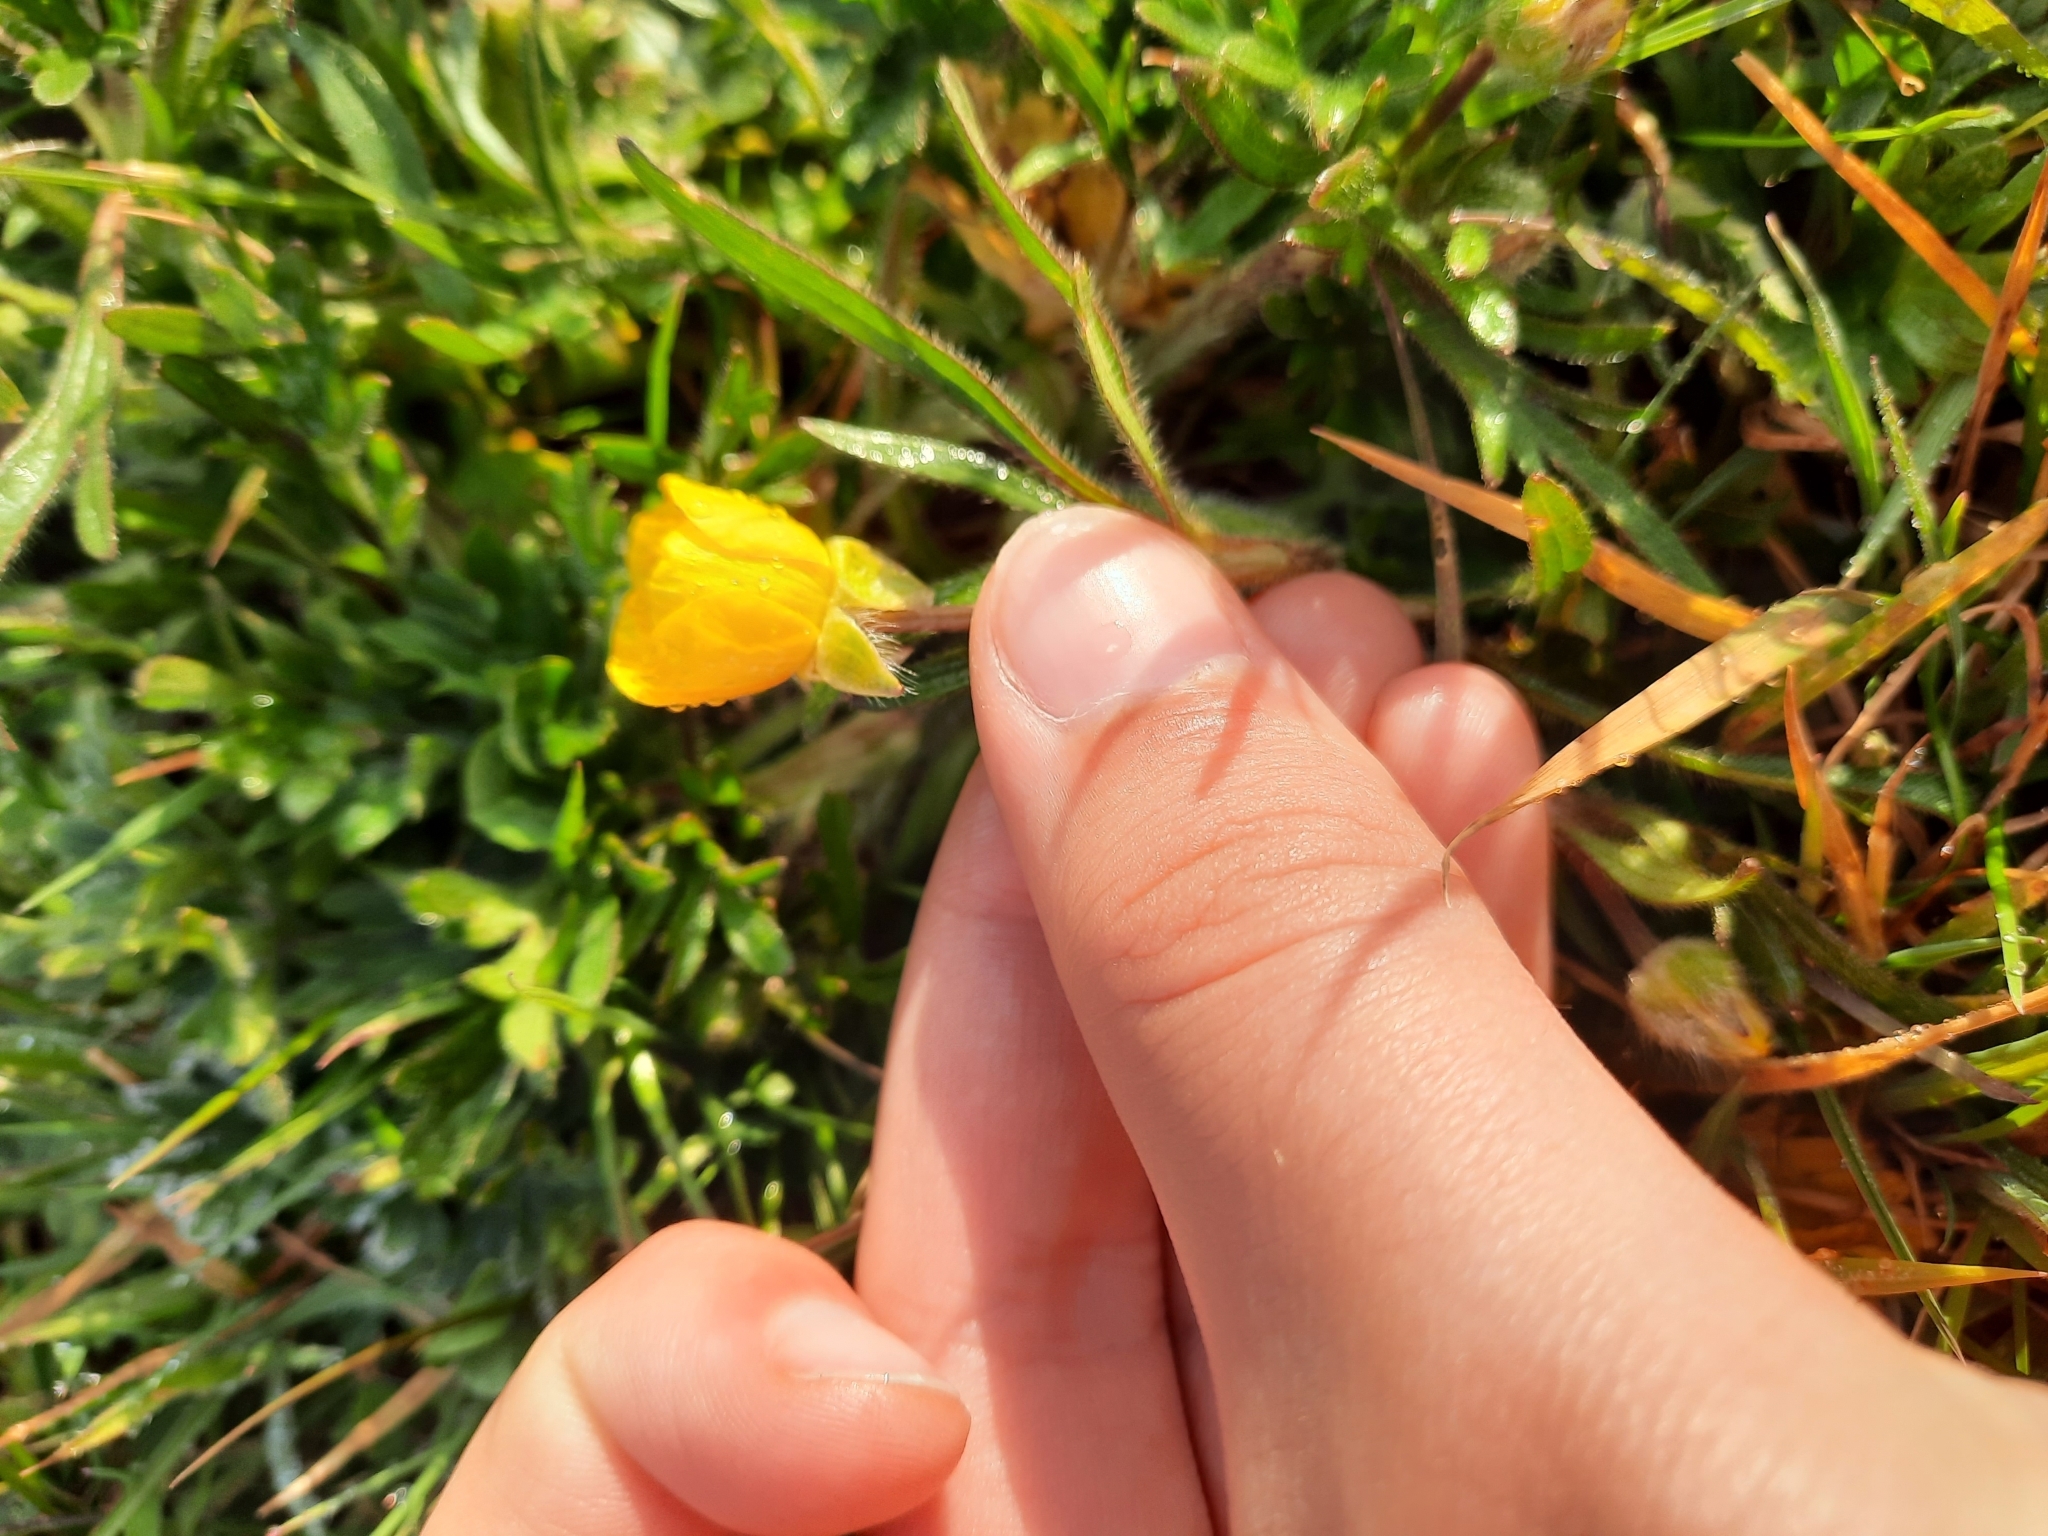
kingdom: Plantae
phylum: Tracheophyta
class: Magnoliopsida
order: Ranunculales
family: Ranunculaceae
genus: Ranunculus
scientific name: Ranunculus bulbosus
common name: Bulbous buttercup
